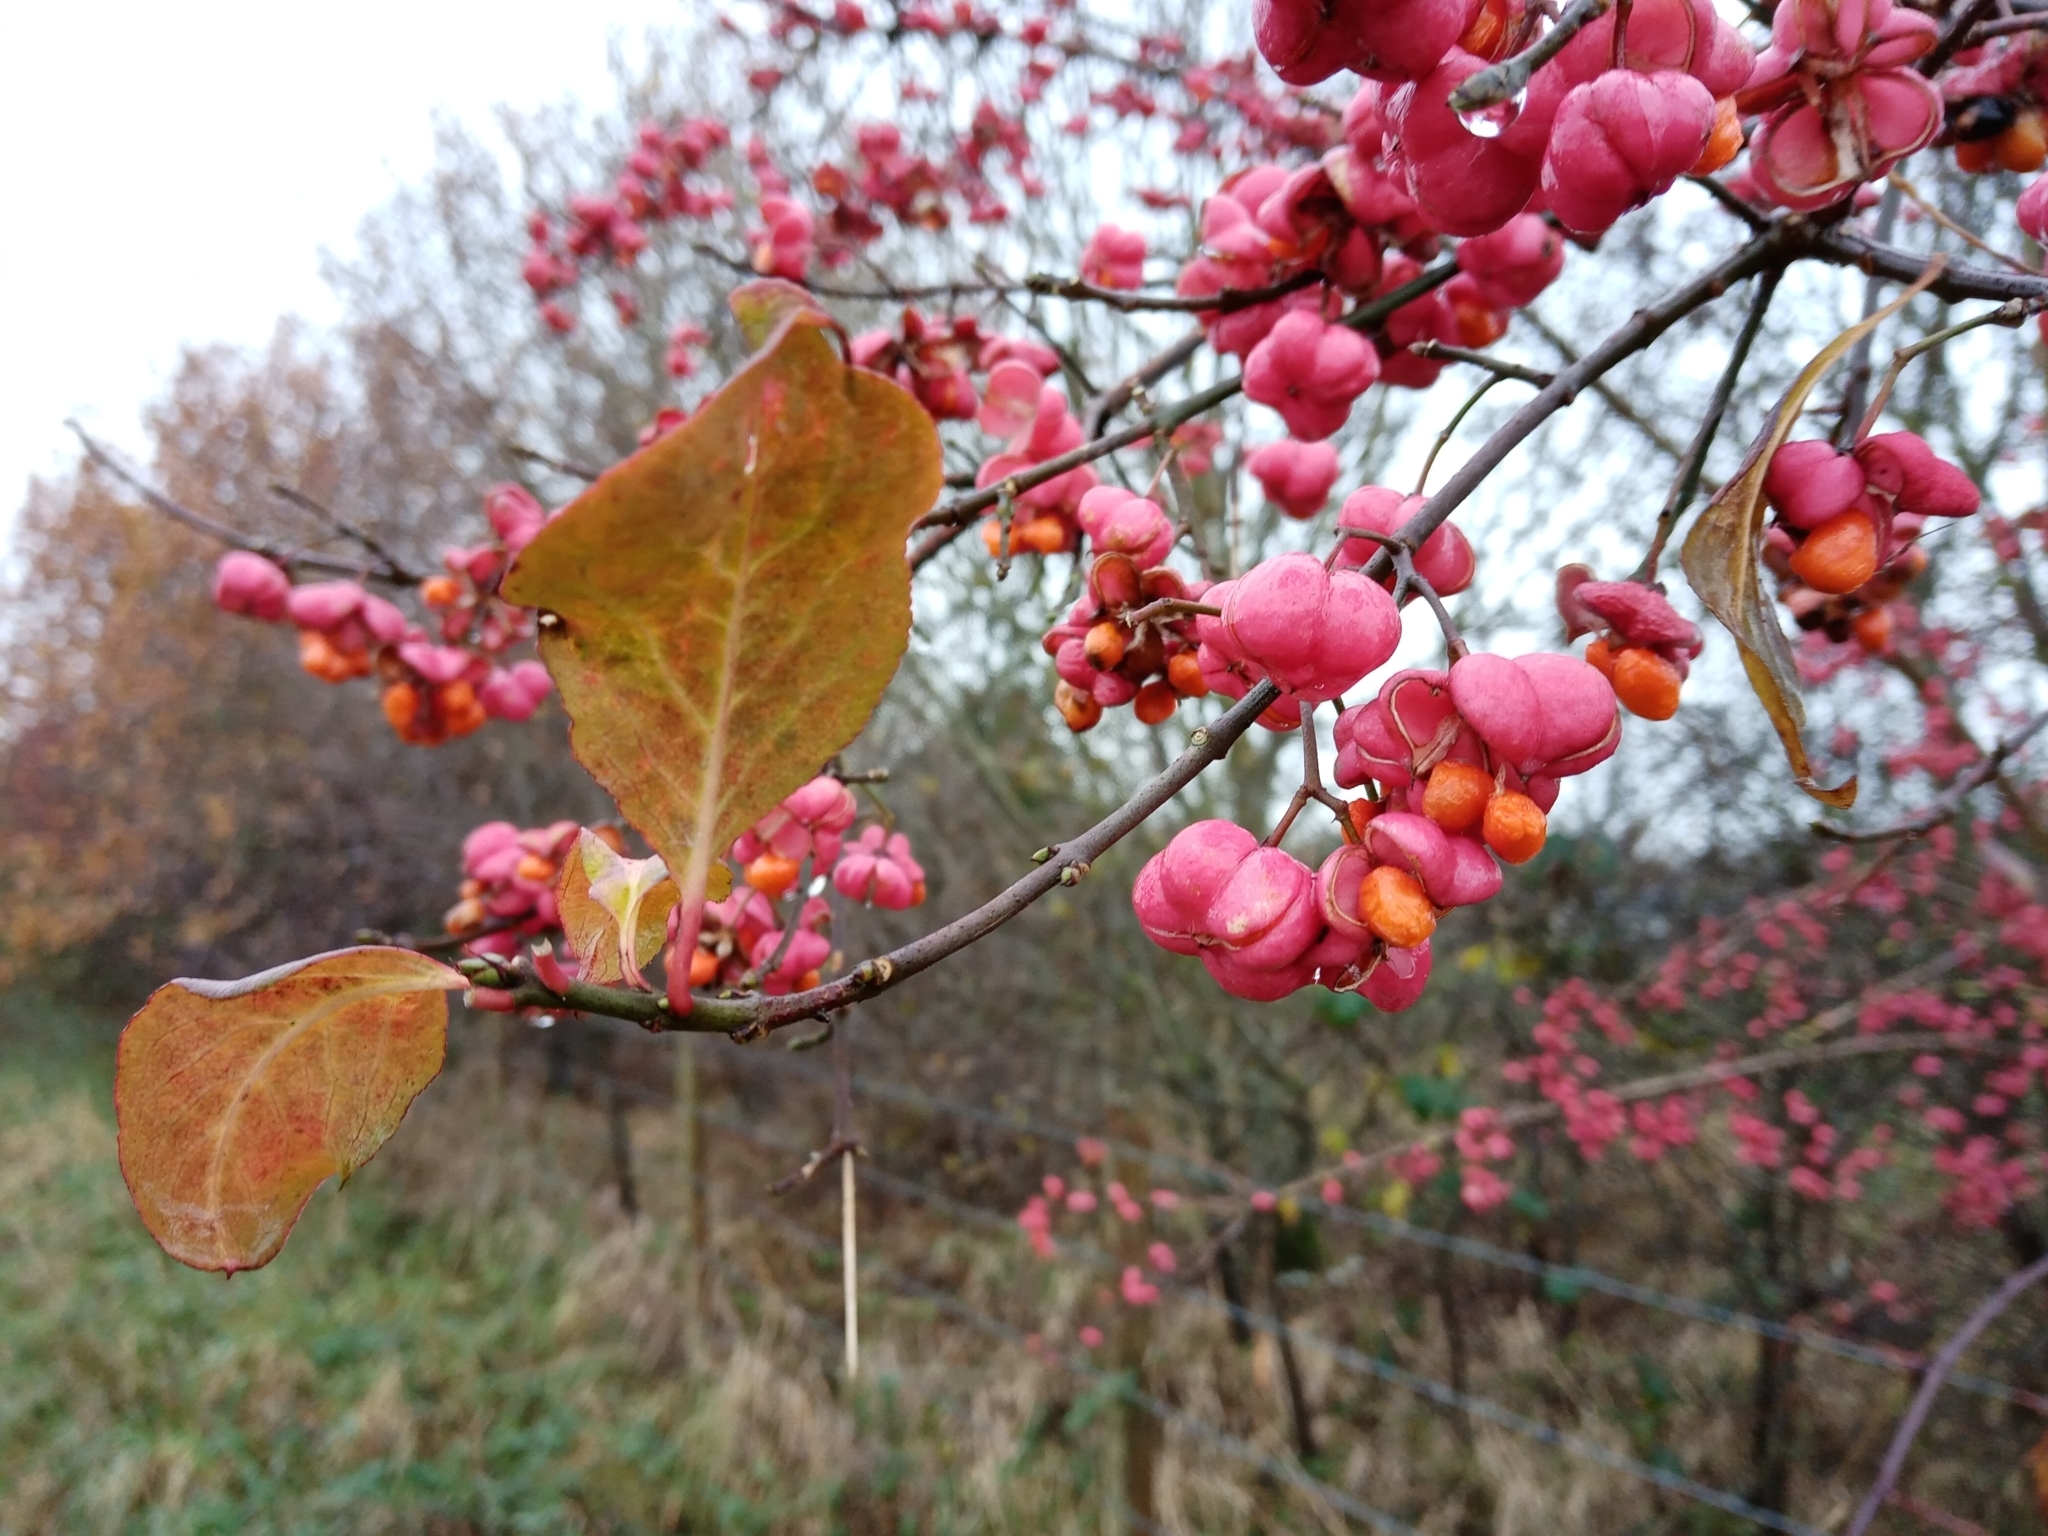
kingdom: Plantae
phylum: Tracheophyta
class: Magnoliopsida
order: Celastrales
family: Celastraceae
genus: Euonymus
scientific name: Euonymus europaeus
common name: Spindle
